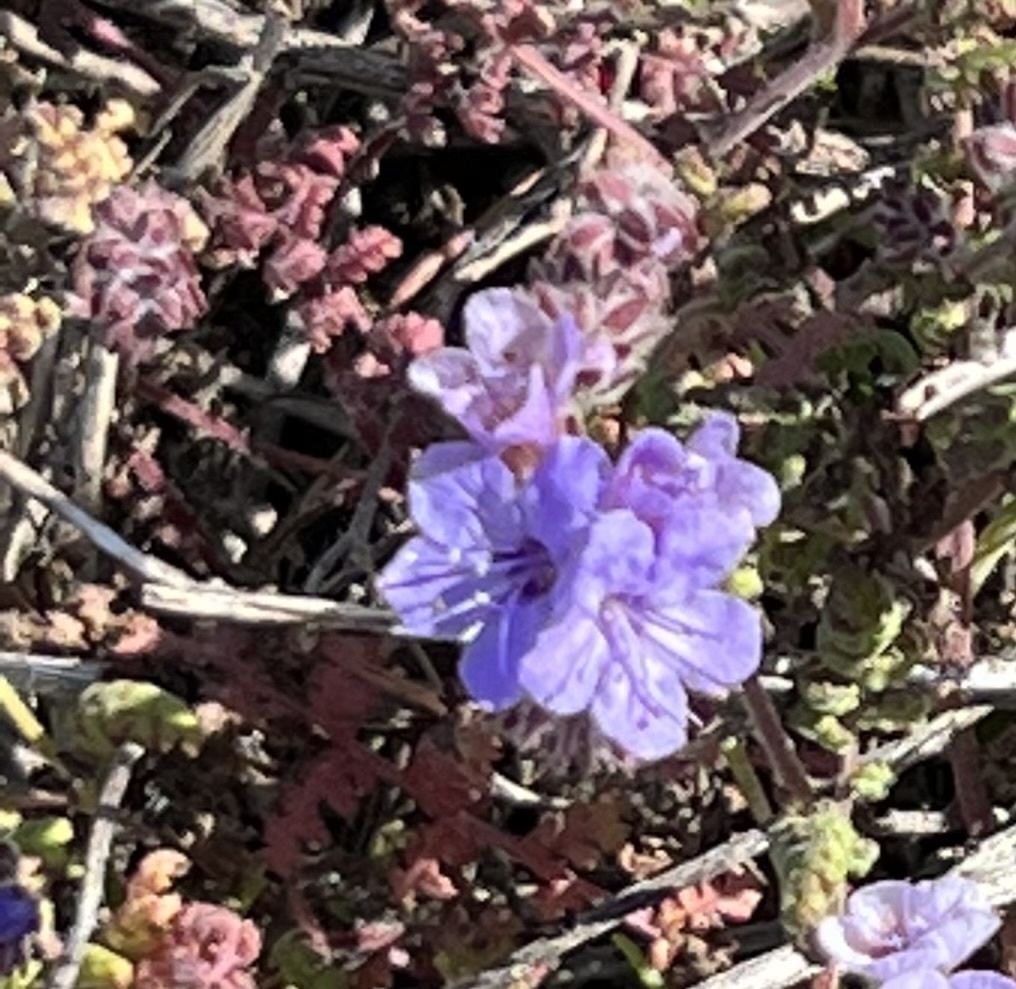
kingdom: Plantae
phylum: Tracheophyta
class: Magnoliopsida
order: Boraginales
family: Hydrophyllaceae
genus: Phacelia
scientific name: Phacelia distans
